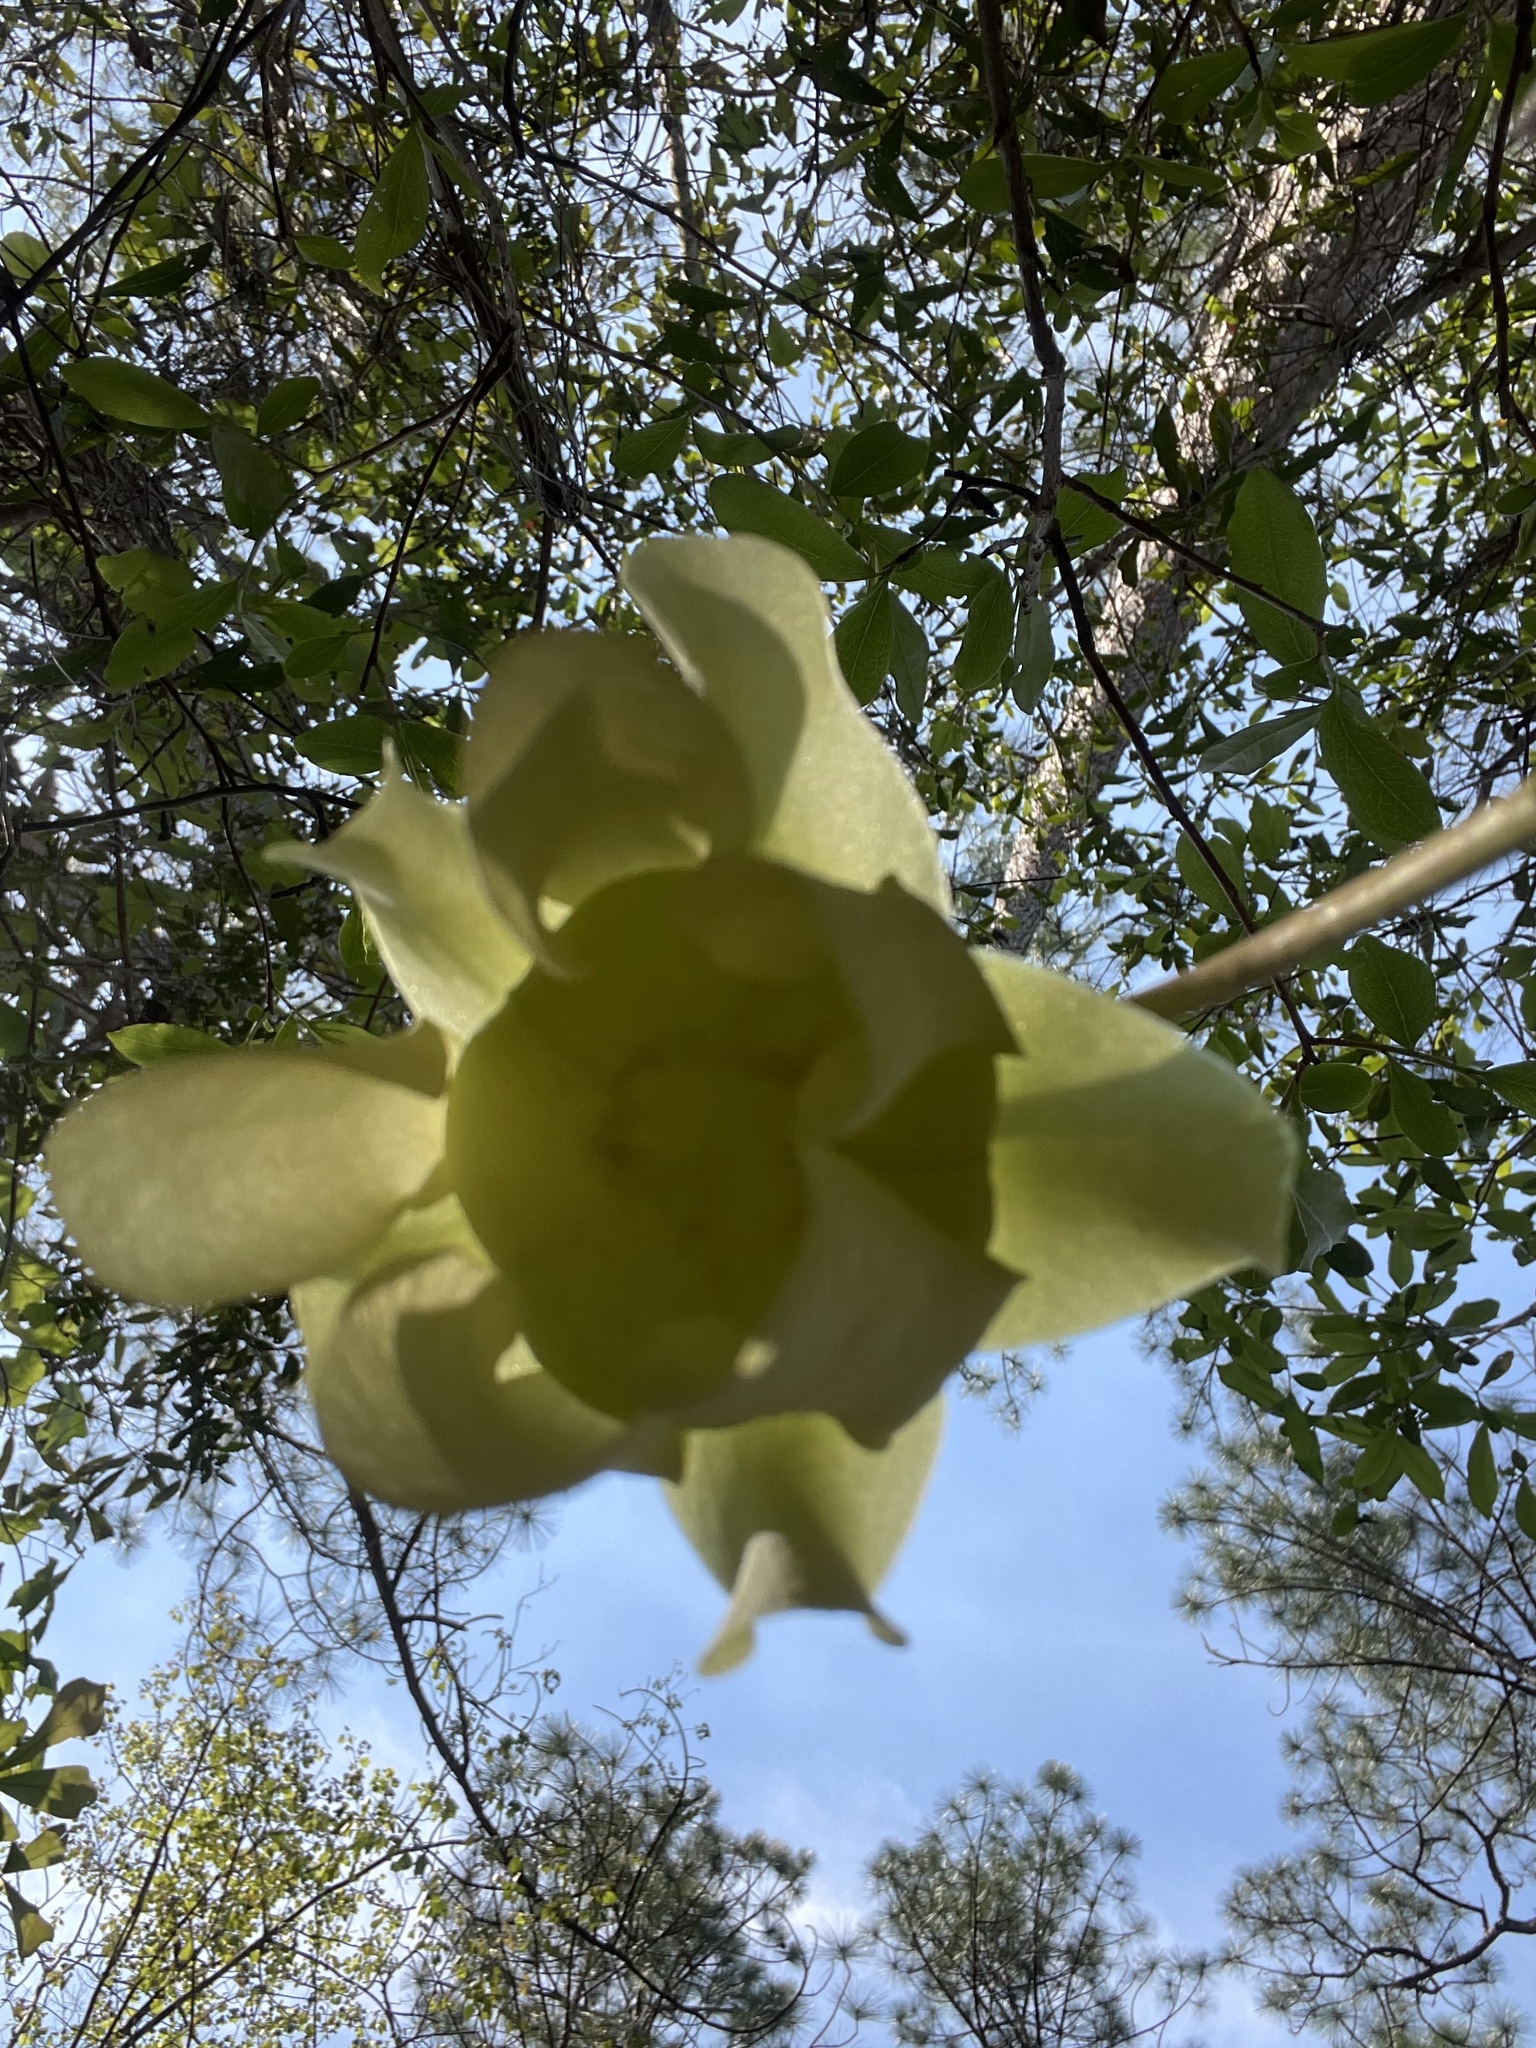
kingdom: Plantae
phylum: Tracheophyta
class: Magnoliopsida
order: Ericales
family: Sarraceniaceae
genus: Sarracenia
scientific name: Sarracenia alata
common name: Yellow trumpets
